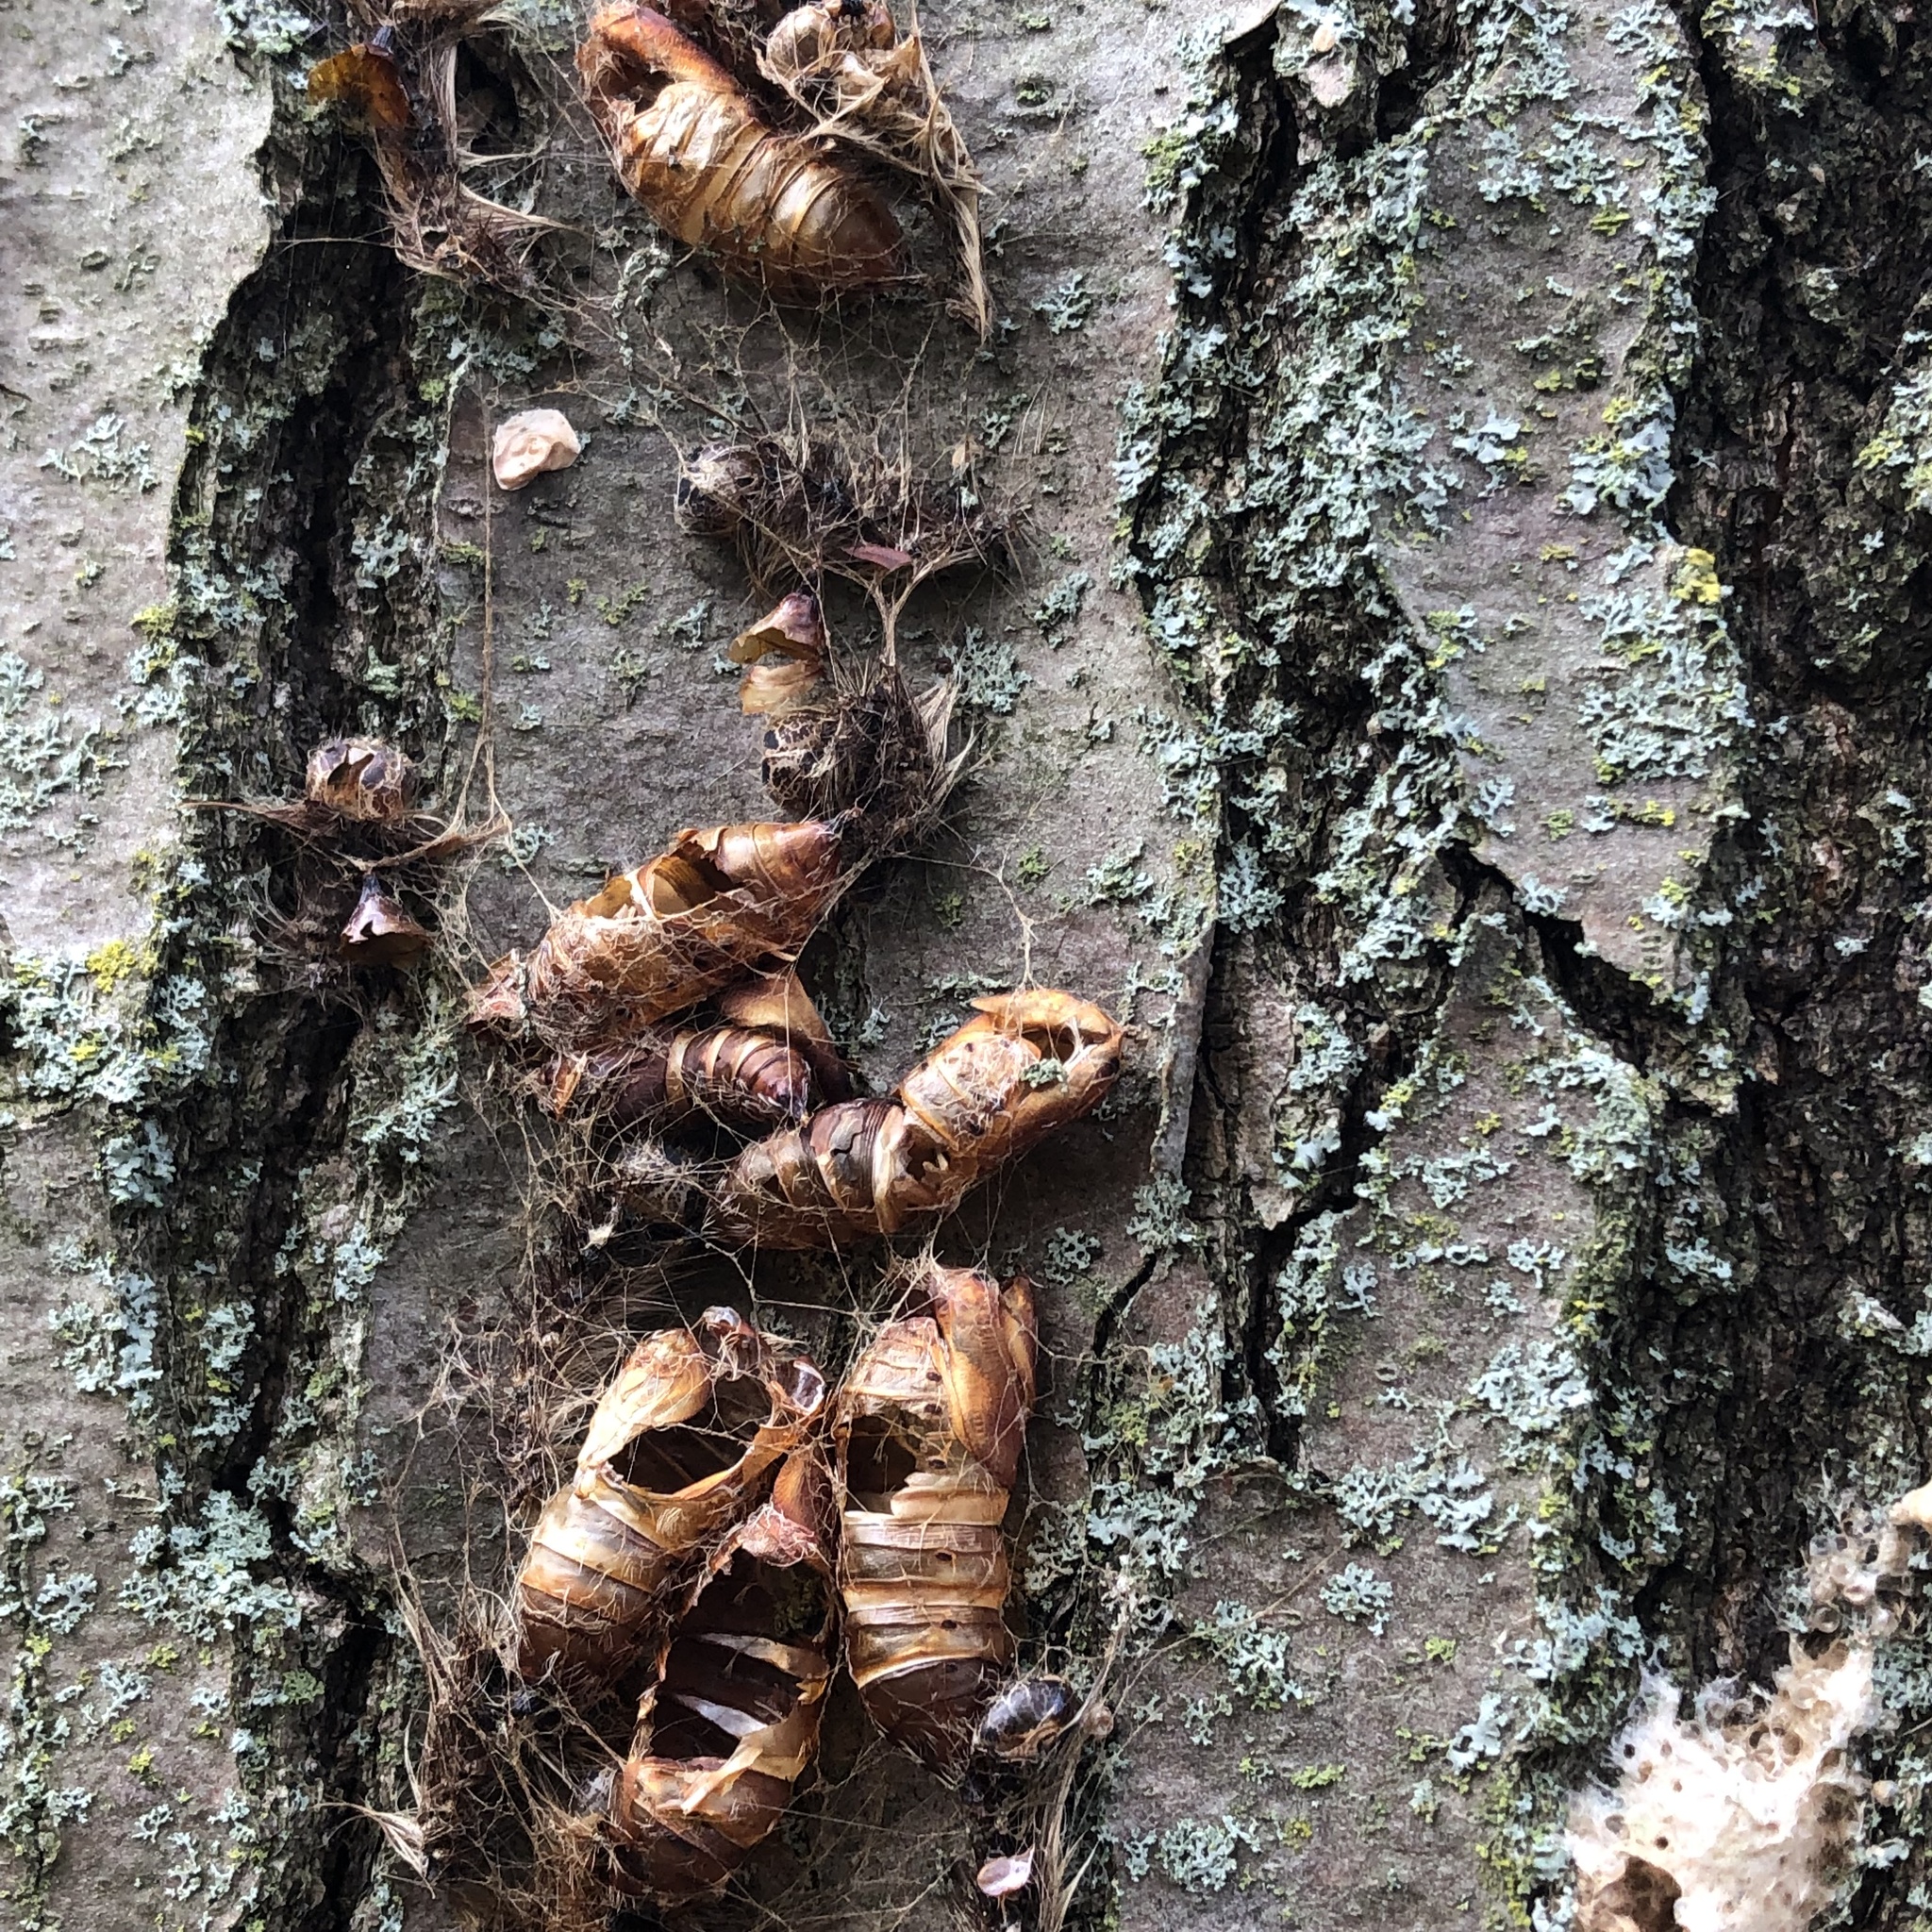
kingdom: Animalia
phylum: Arthropoda
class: Insecta
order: Lepidoptera
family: Erebidae
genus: Lymantria
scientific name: Lymantria dispar
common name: Gypsy moth
